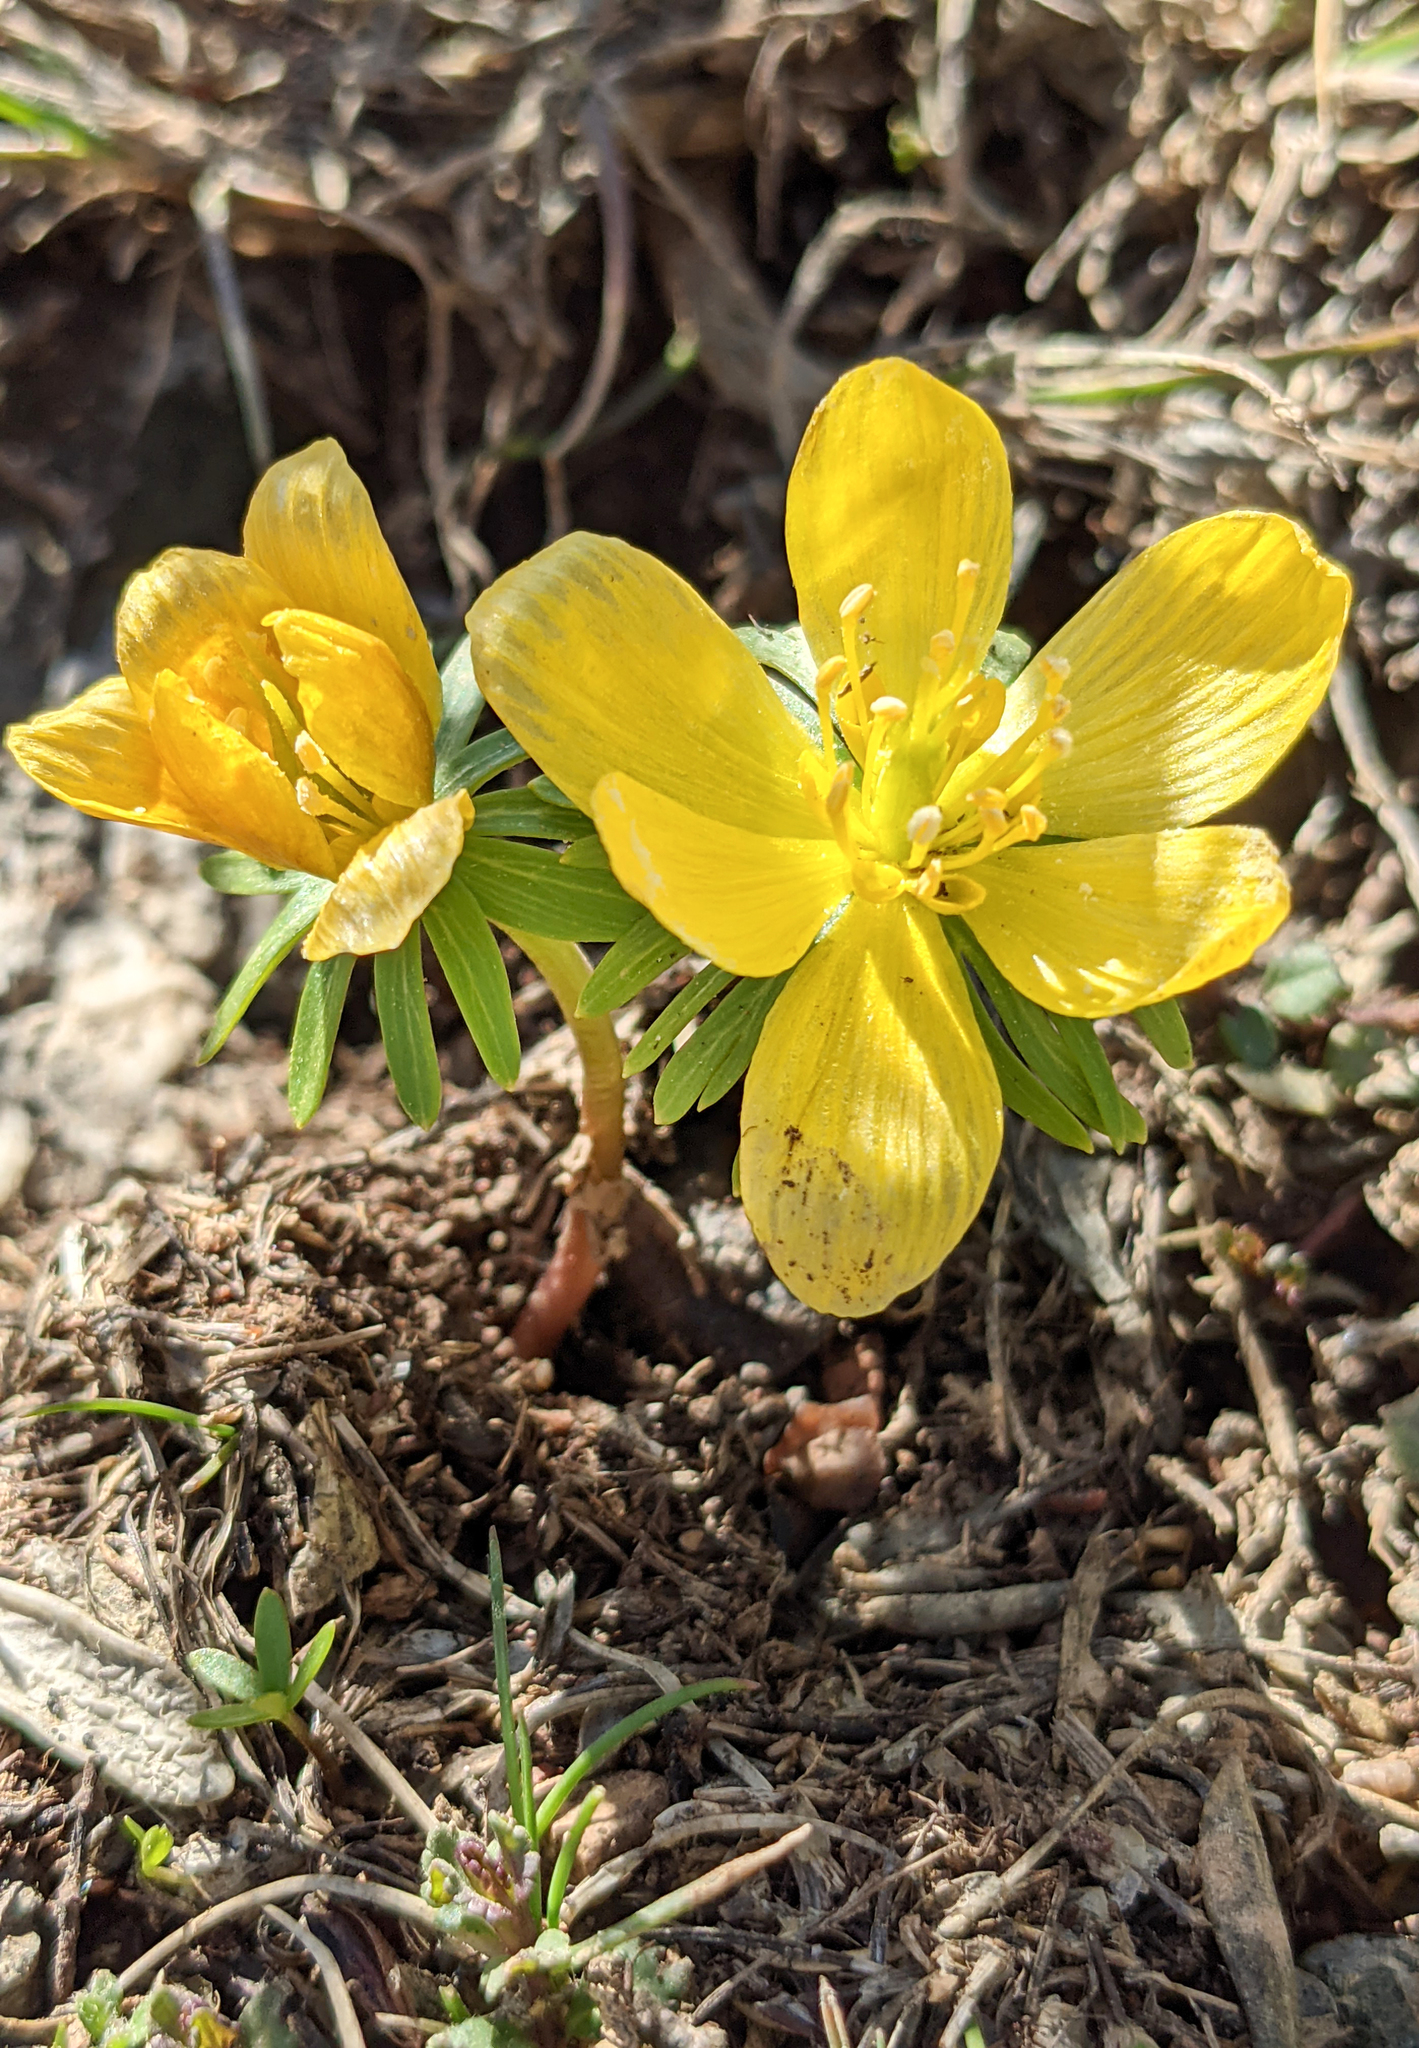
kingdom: Plantae
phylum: Tracheophyta
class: Magnoliopsida
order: Ranunculales
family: Ranunculaceae
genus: Eranthis
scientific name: Eranthis cilicica
